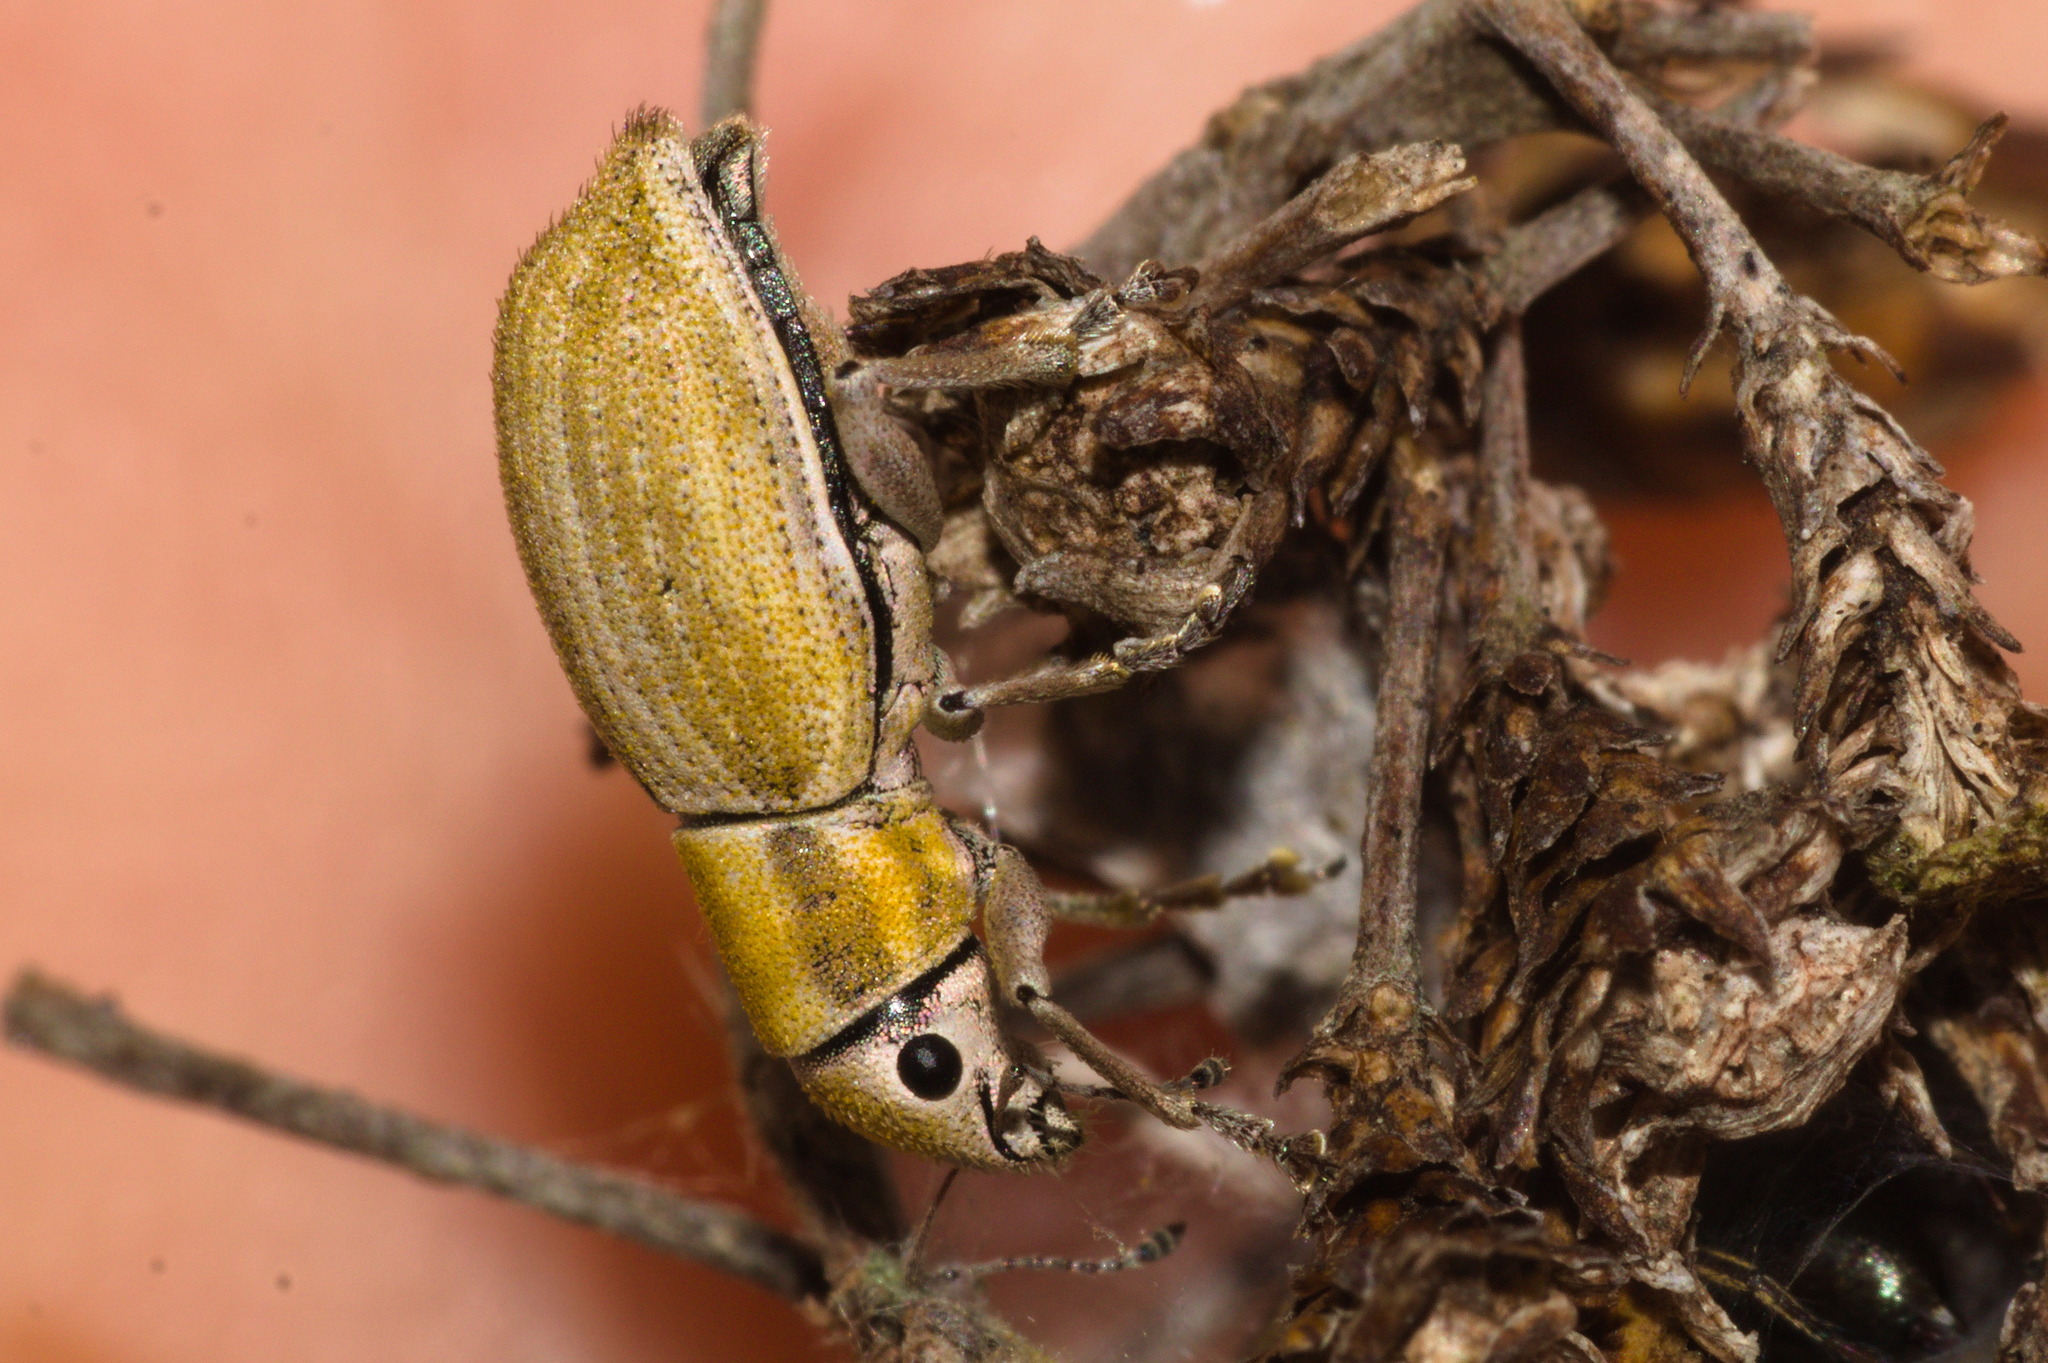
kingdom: Animalia
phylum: Arthropoda
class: Insecta
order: Coleoptera
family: Curculionidae
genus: Aramigus
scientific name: Aramigus tessellatus
